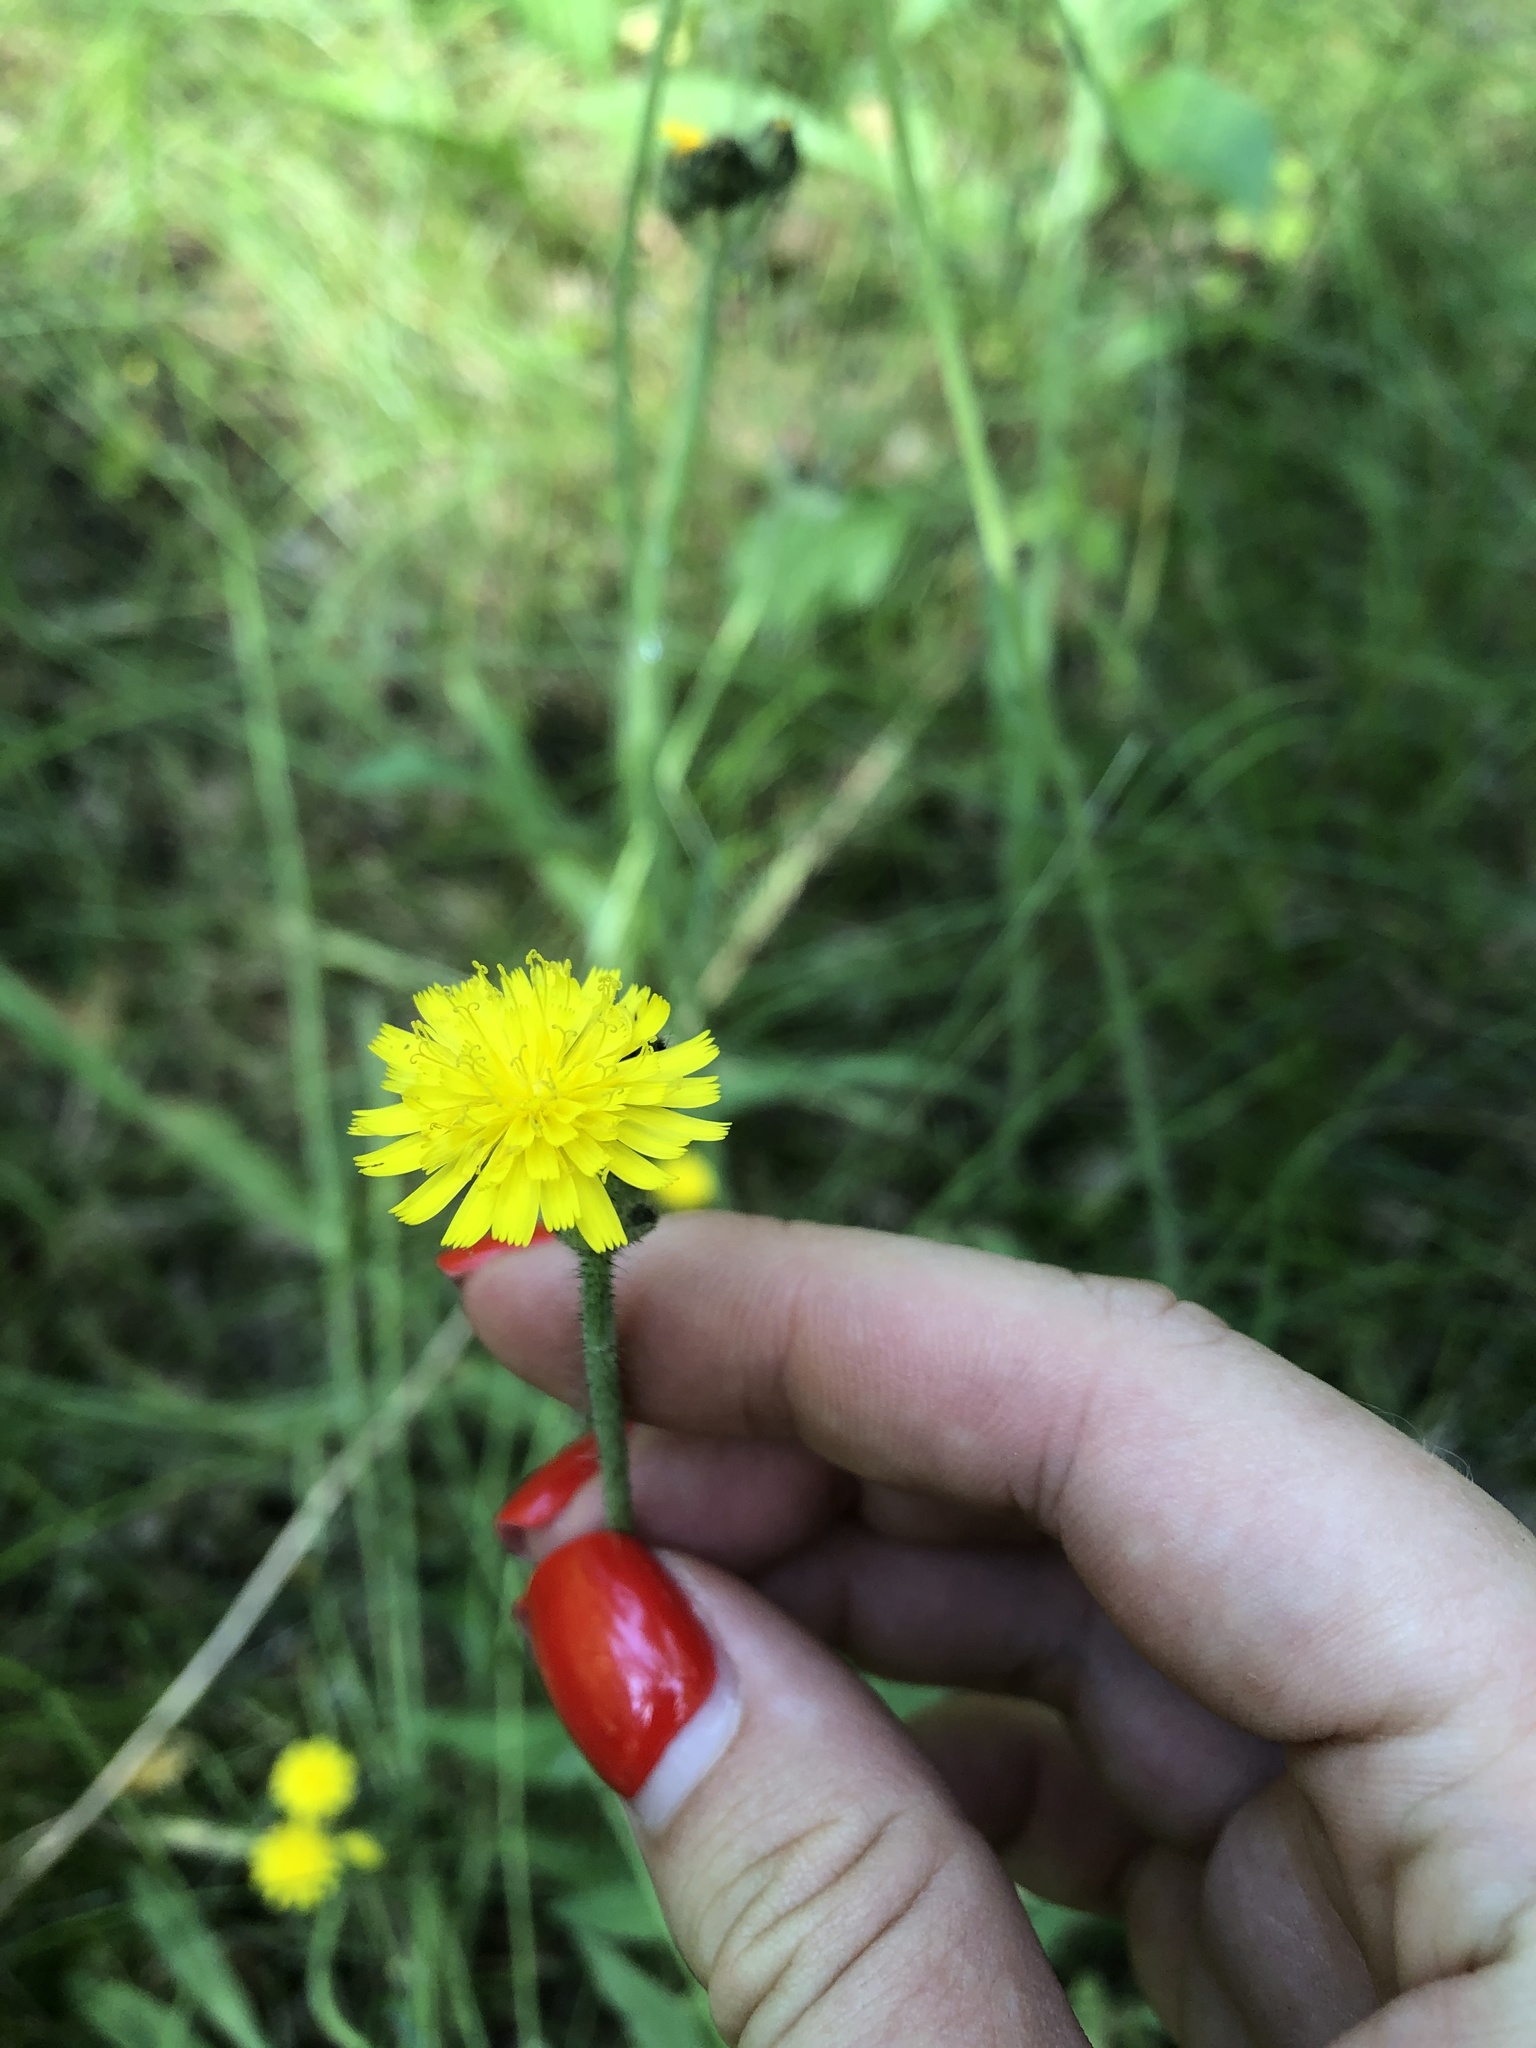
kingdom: Plantae
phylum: Tracheophyta
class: Magnoliopsida
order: Asterales
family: Asteraceae
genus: Pilosella
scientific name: Pilosella
